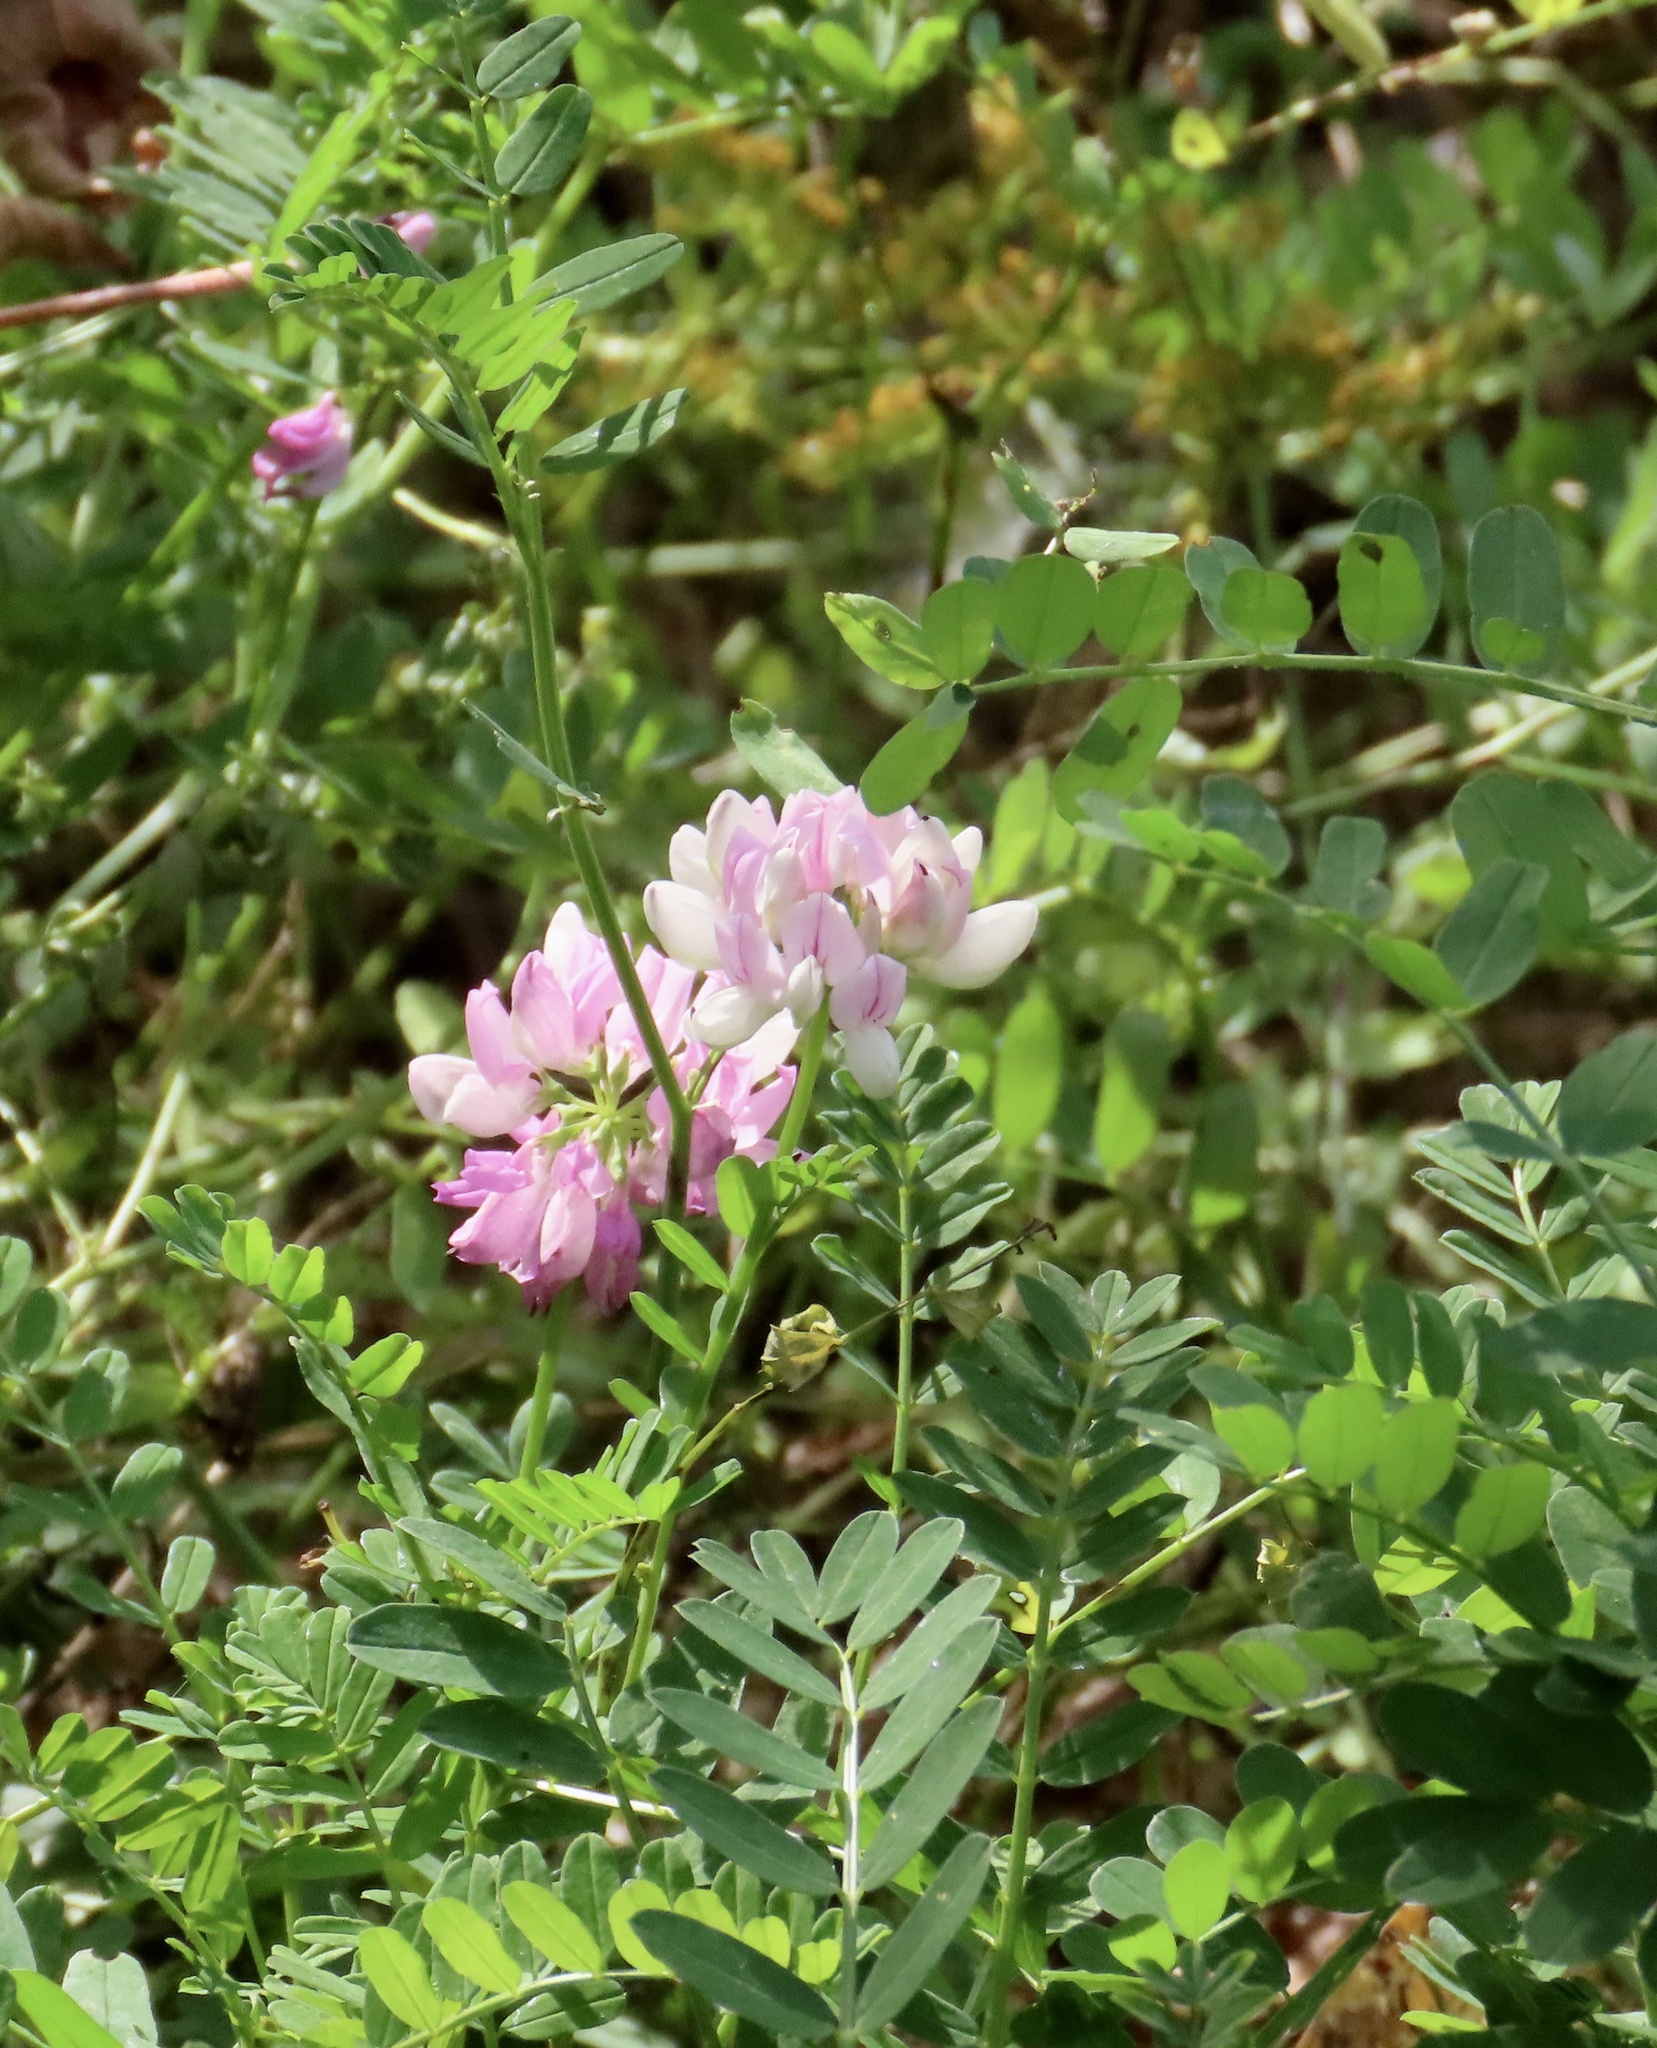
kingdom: Plantae
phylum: Tracheophyta
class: Magnoliopsida
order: Fabales
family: Fabaceae
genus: Coronilla
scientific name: Coronilla varia
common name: Crownvetch
